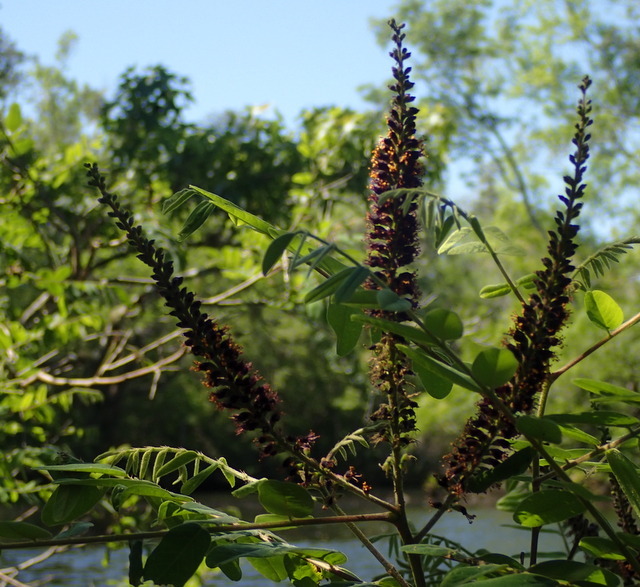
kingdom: Plantae
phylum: Tracheophyta
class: Magnoliopsida
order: Fabales
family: Fabaceae
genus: Amorpha
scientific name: Amorpha fruticosa
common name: False indigo
